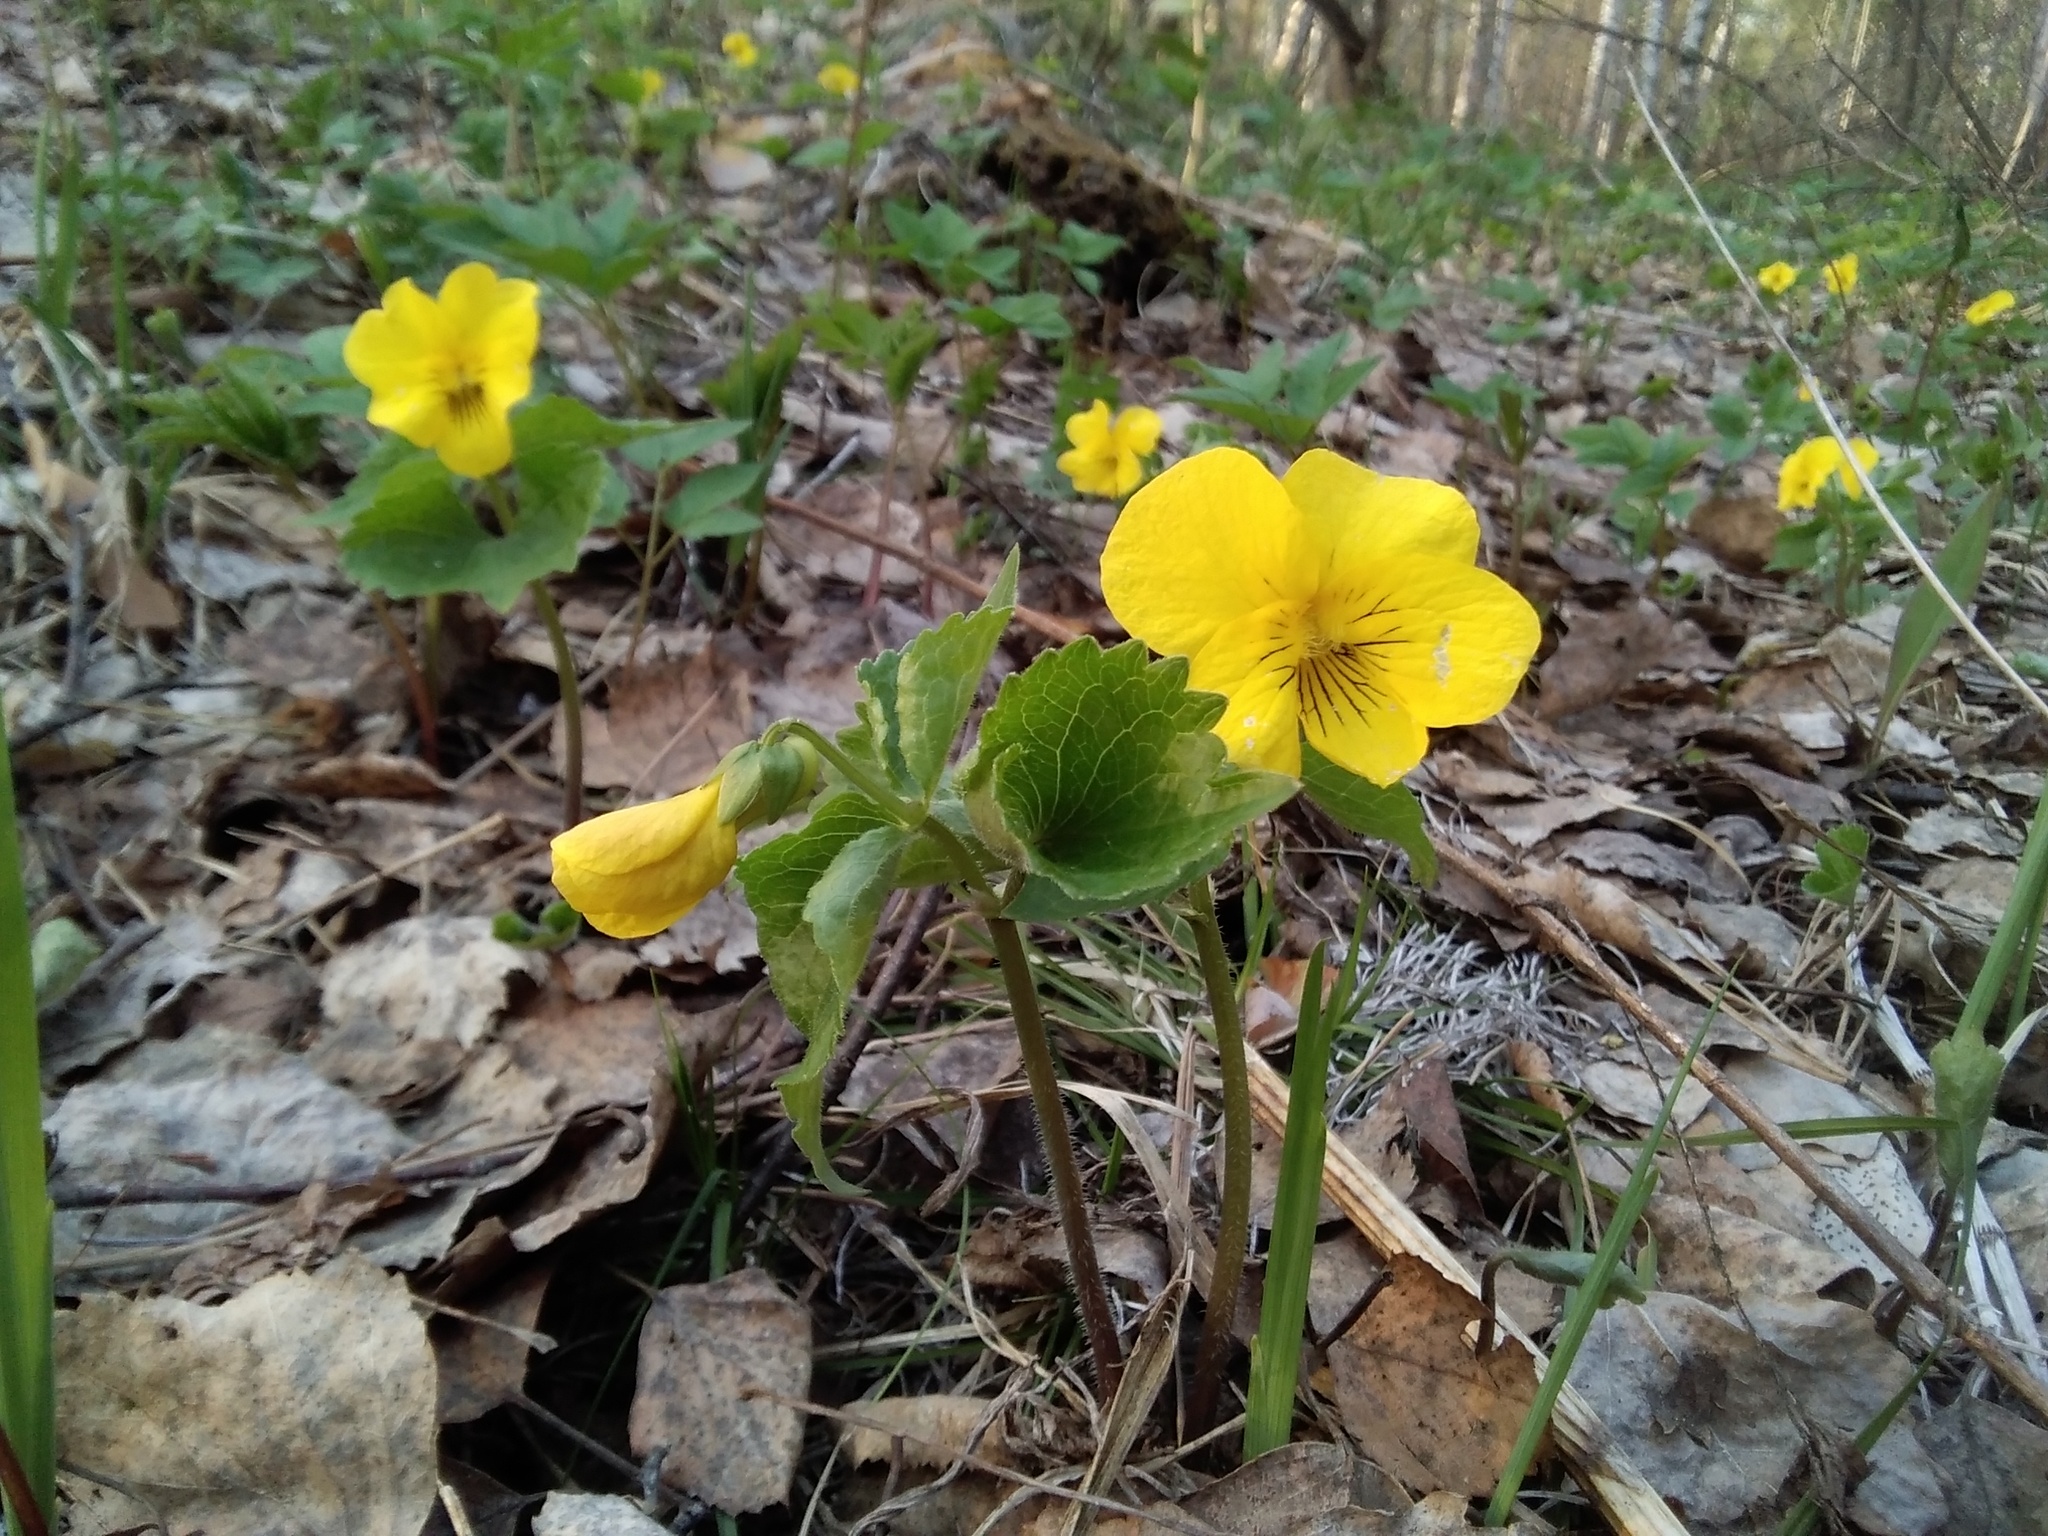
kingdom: Plantae
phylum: Tracheophyta
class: Magnoliopsida
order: Malpighiales
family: Violaceae
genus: Viola
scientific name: Viola uniflora
